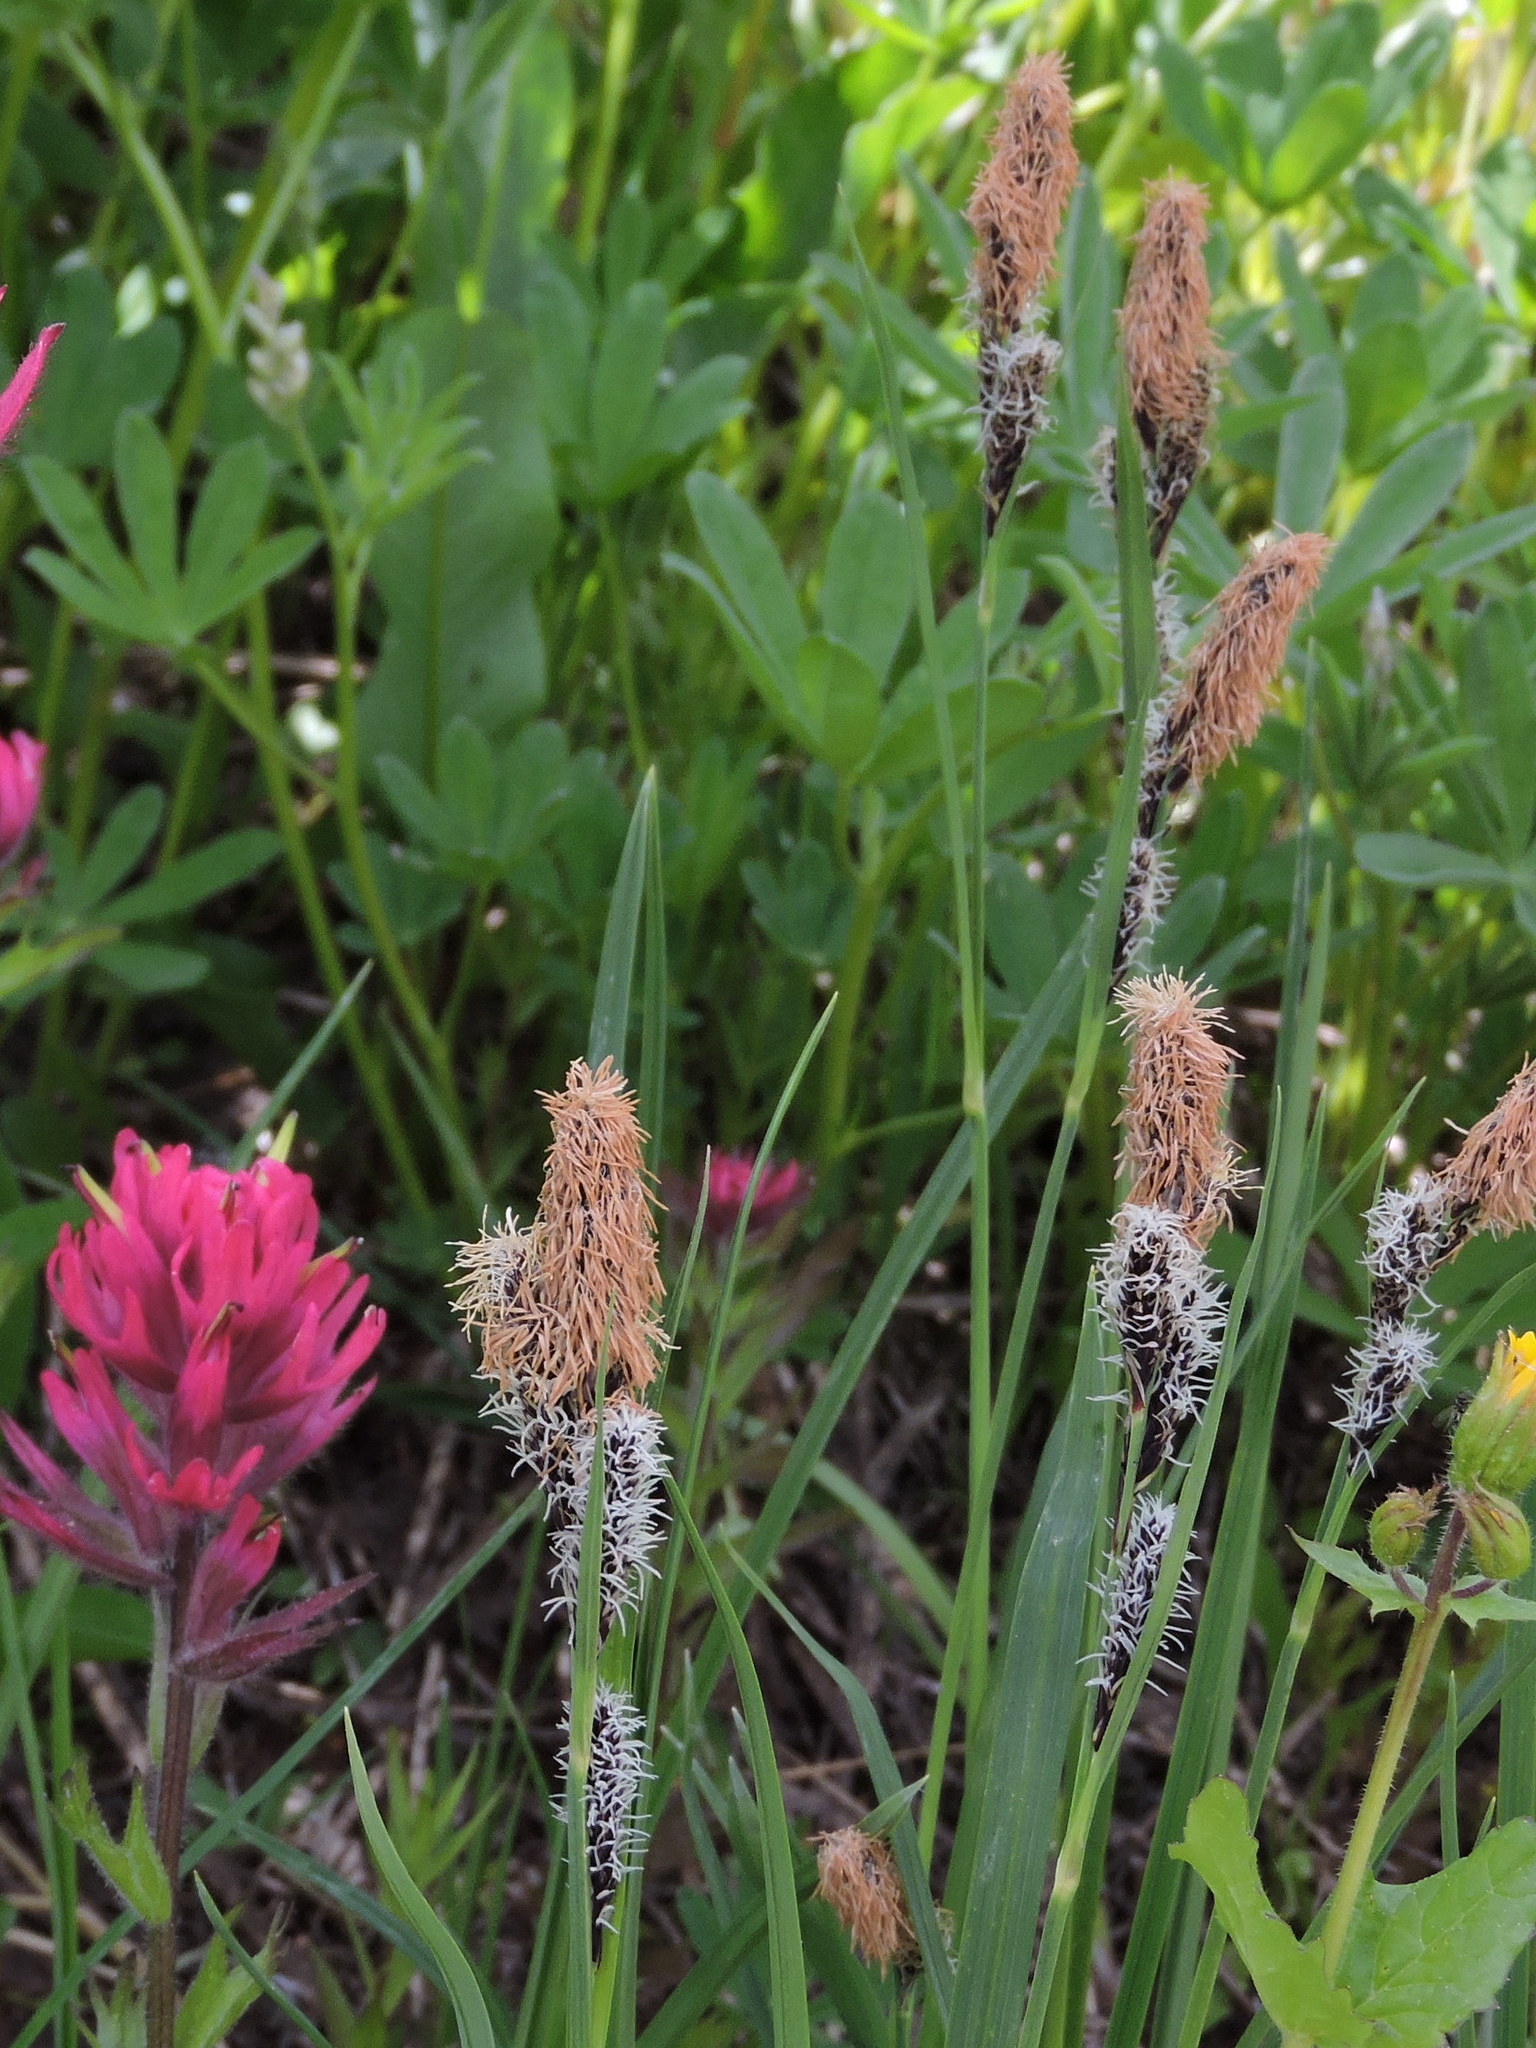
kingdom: Plantae
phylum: Tracheophyta
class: Liliopsida
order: Poales
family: Cyperaceae
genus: Carex
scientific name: Carex spectabilis
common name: Northwestern showy sedge
